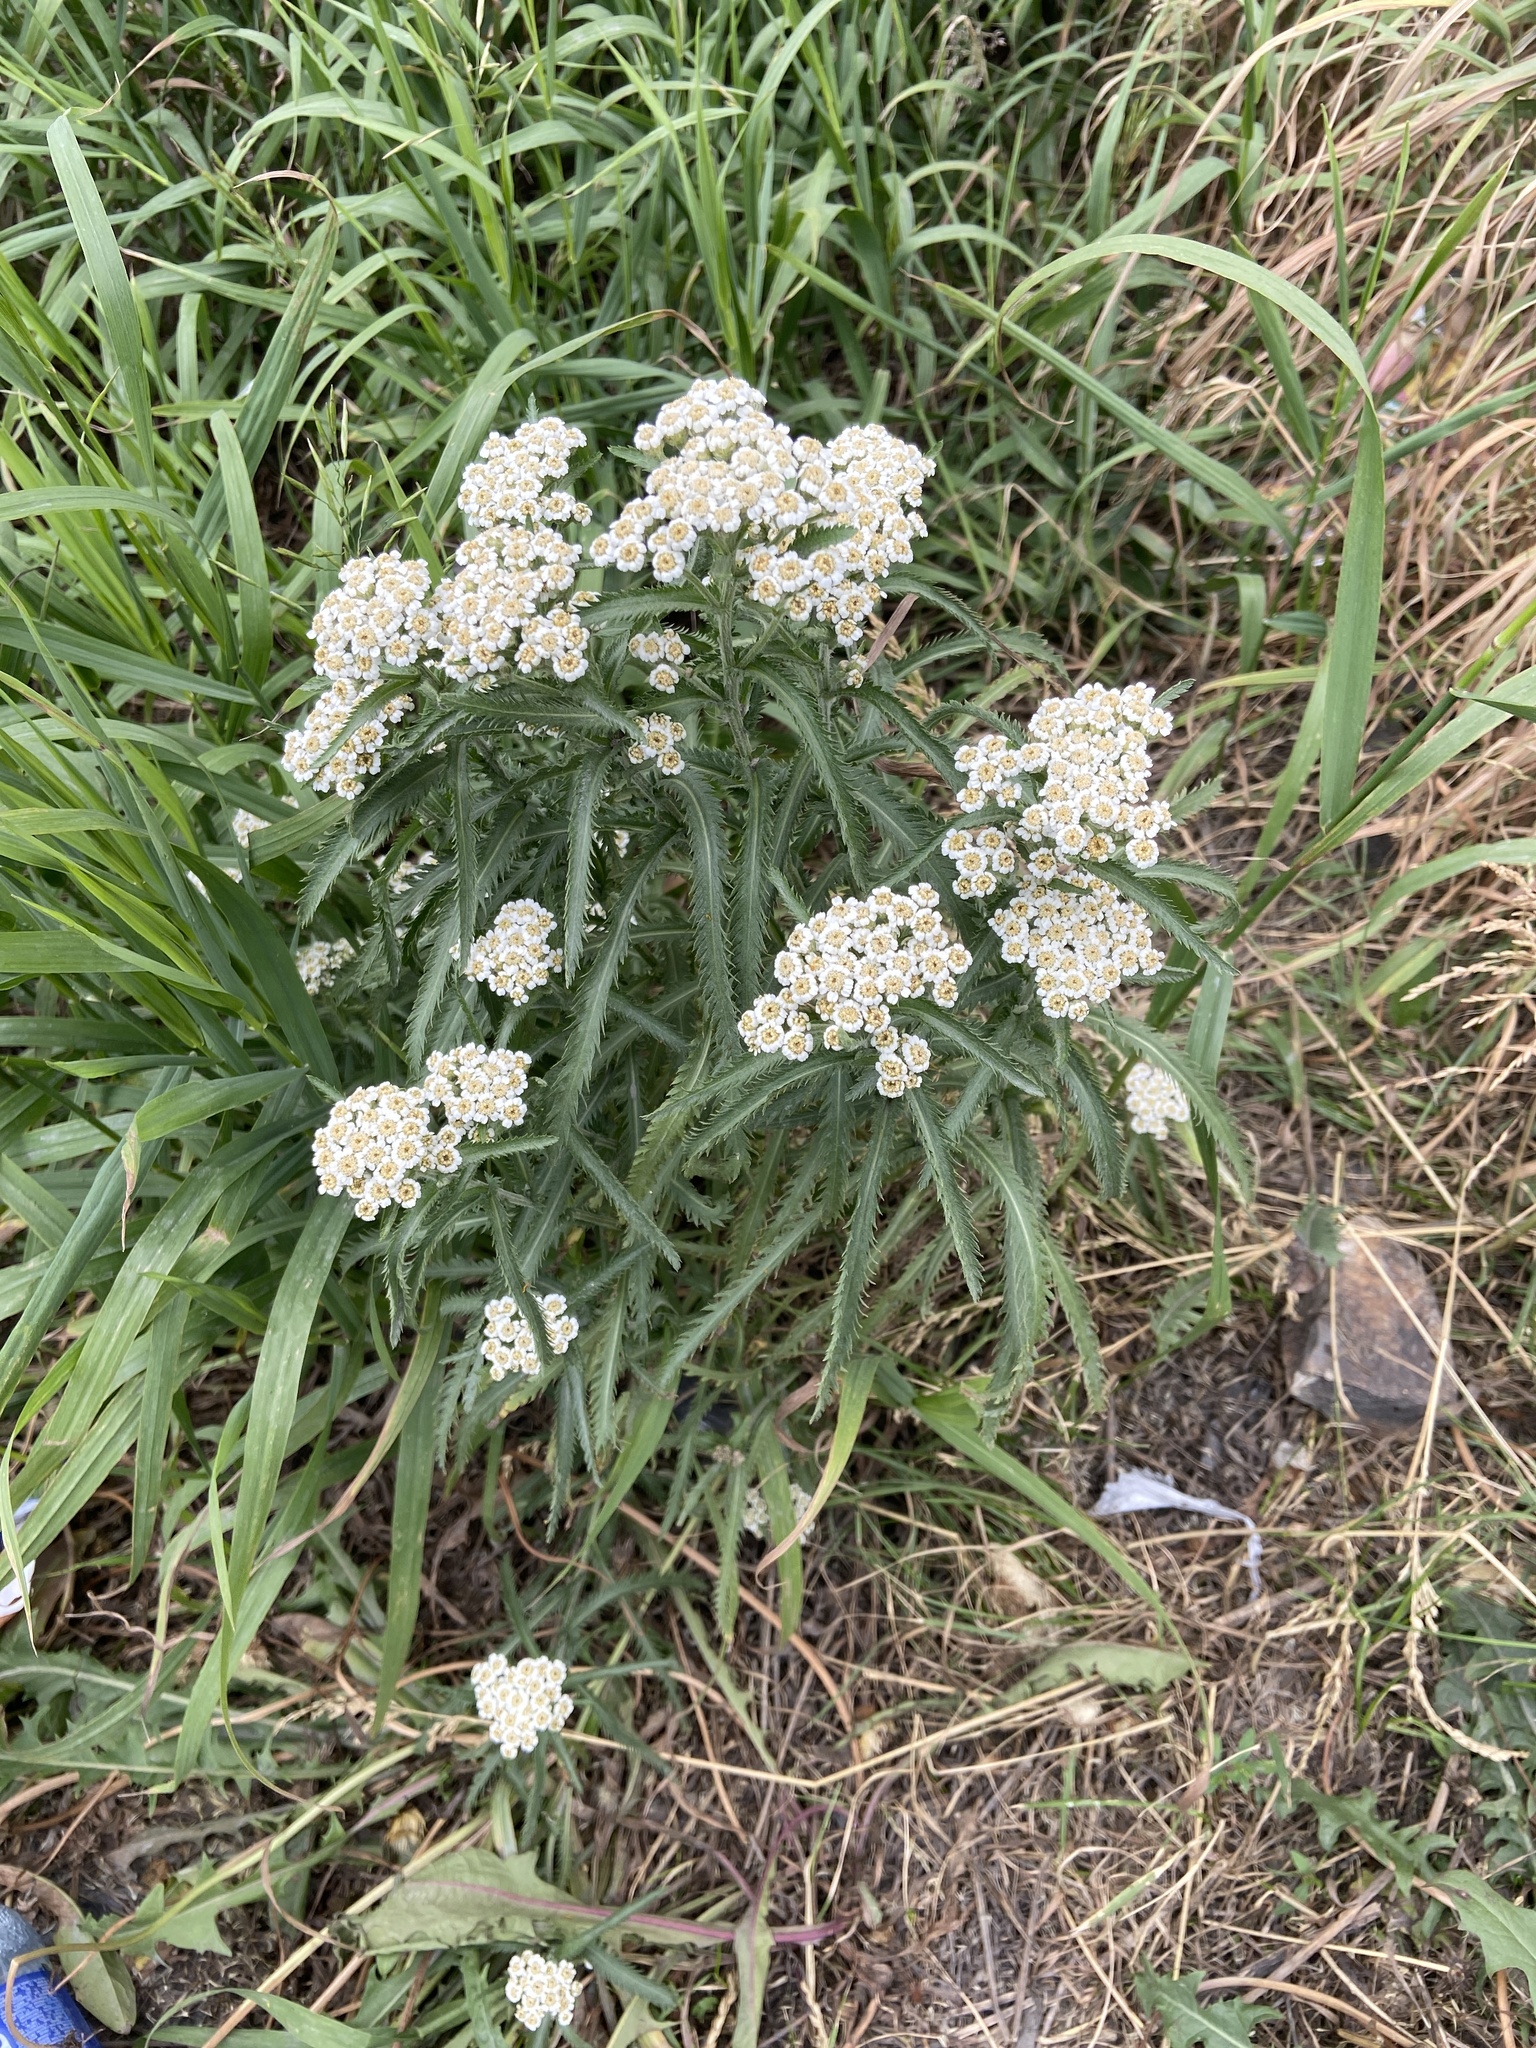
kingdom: Plantae
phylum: Tracheophyta
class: Magnoliopsida
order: Asterales
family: Asteraceae
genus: Achillea
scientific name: Achillea alpina
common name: Siberian yarrow
